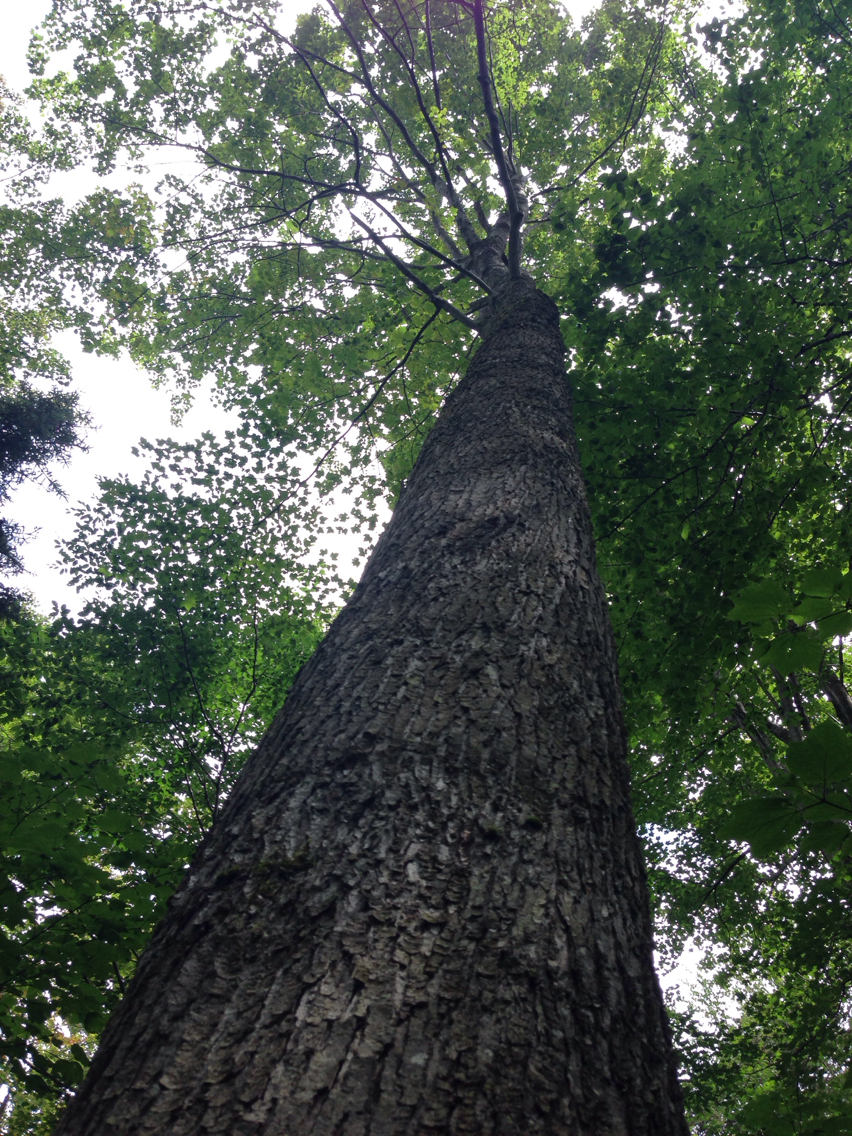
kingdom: Plantae
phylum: Tracheophyta
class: Magnoliopsida
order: Sapindales
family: Sapindaceae
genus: Acer
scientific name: Acer rubrum
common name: Red maple
